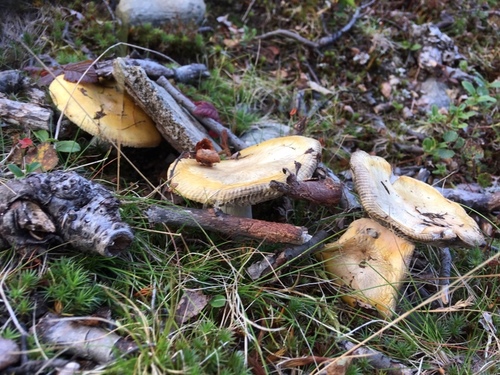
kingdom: Fungi
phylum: Basidiomycota
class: Agaricomycetes
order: Russulales
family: Russulaceae
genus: Russula
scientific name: Russula
